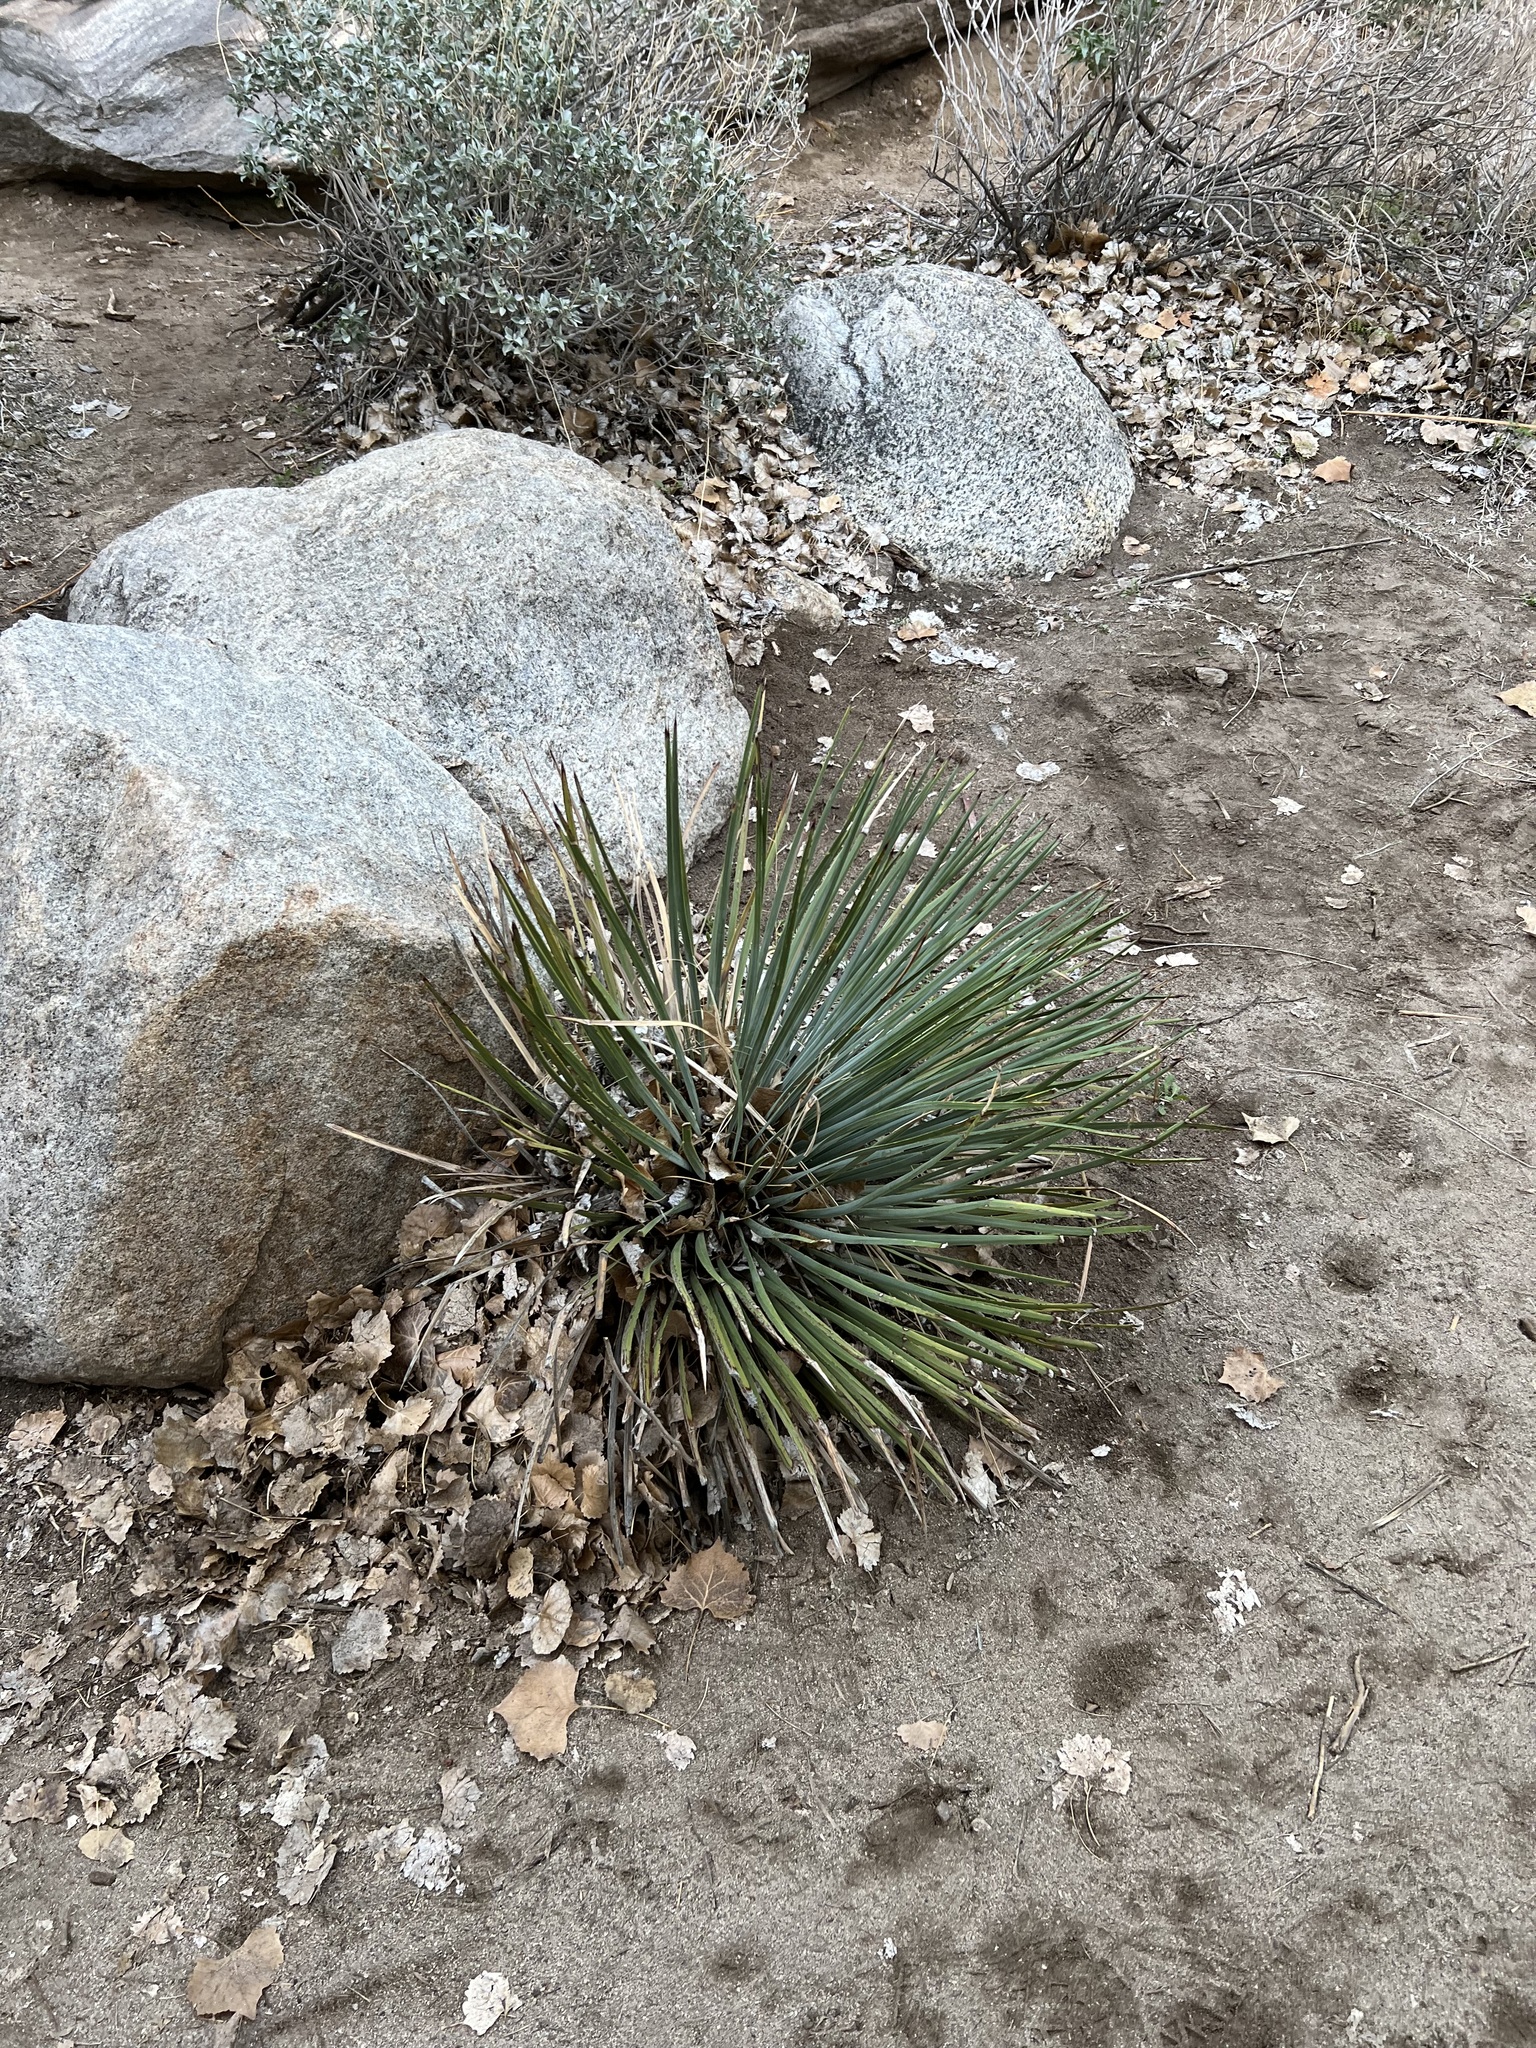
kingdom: Plantae
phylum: Tracheophyta
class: Liliopsida
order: Asparagales
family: Asparagaceae
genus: Hesperoyucca
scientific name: Hesperoyucca whipplei
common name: Our lord's-candle
